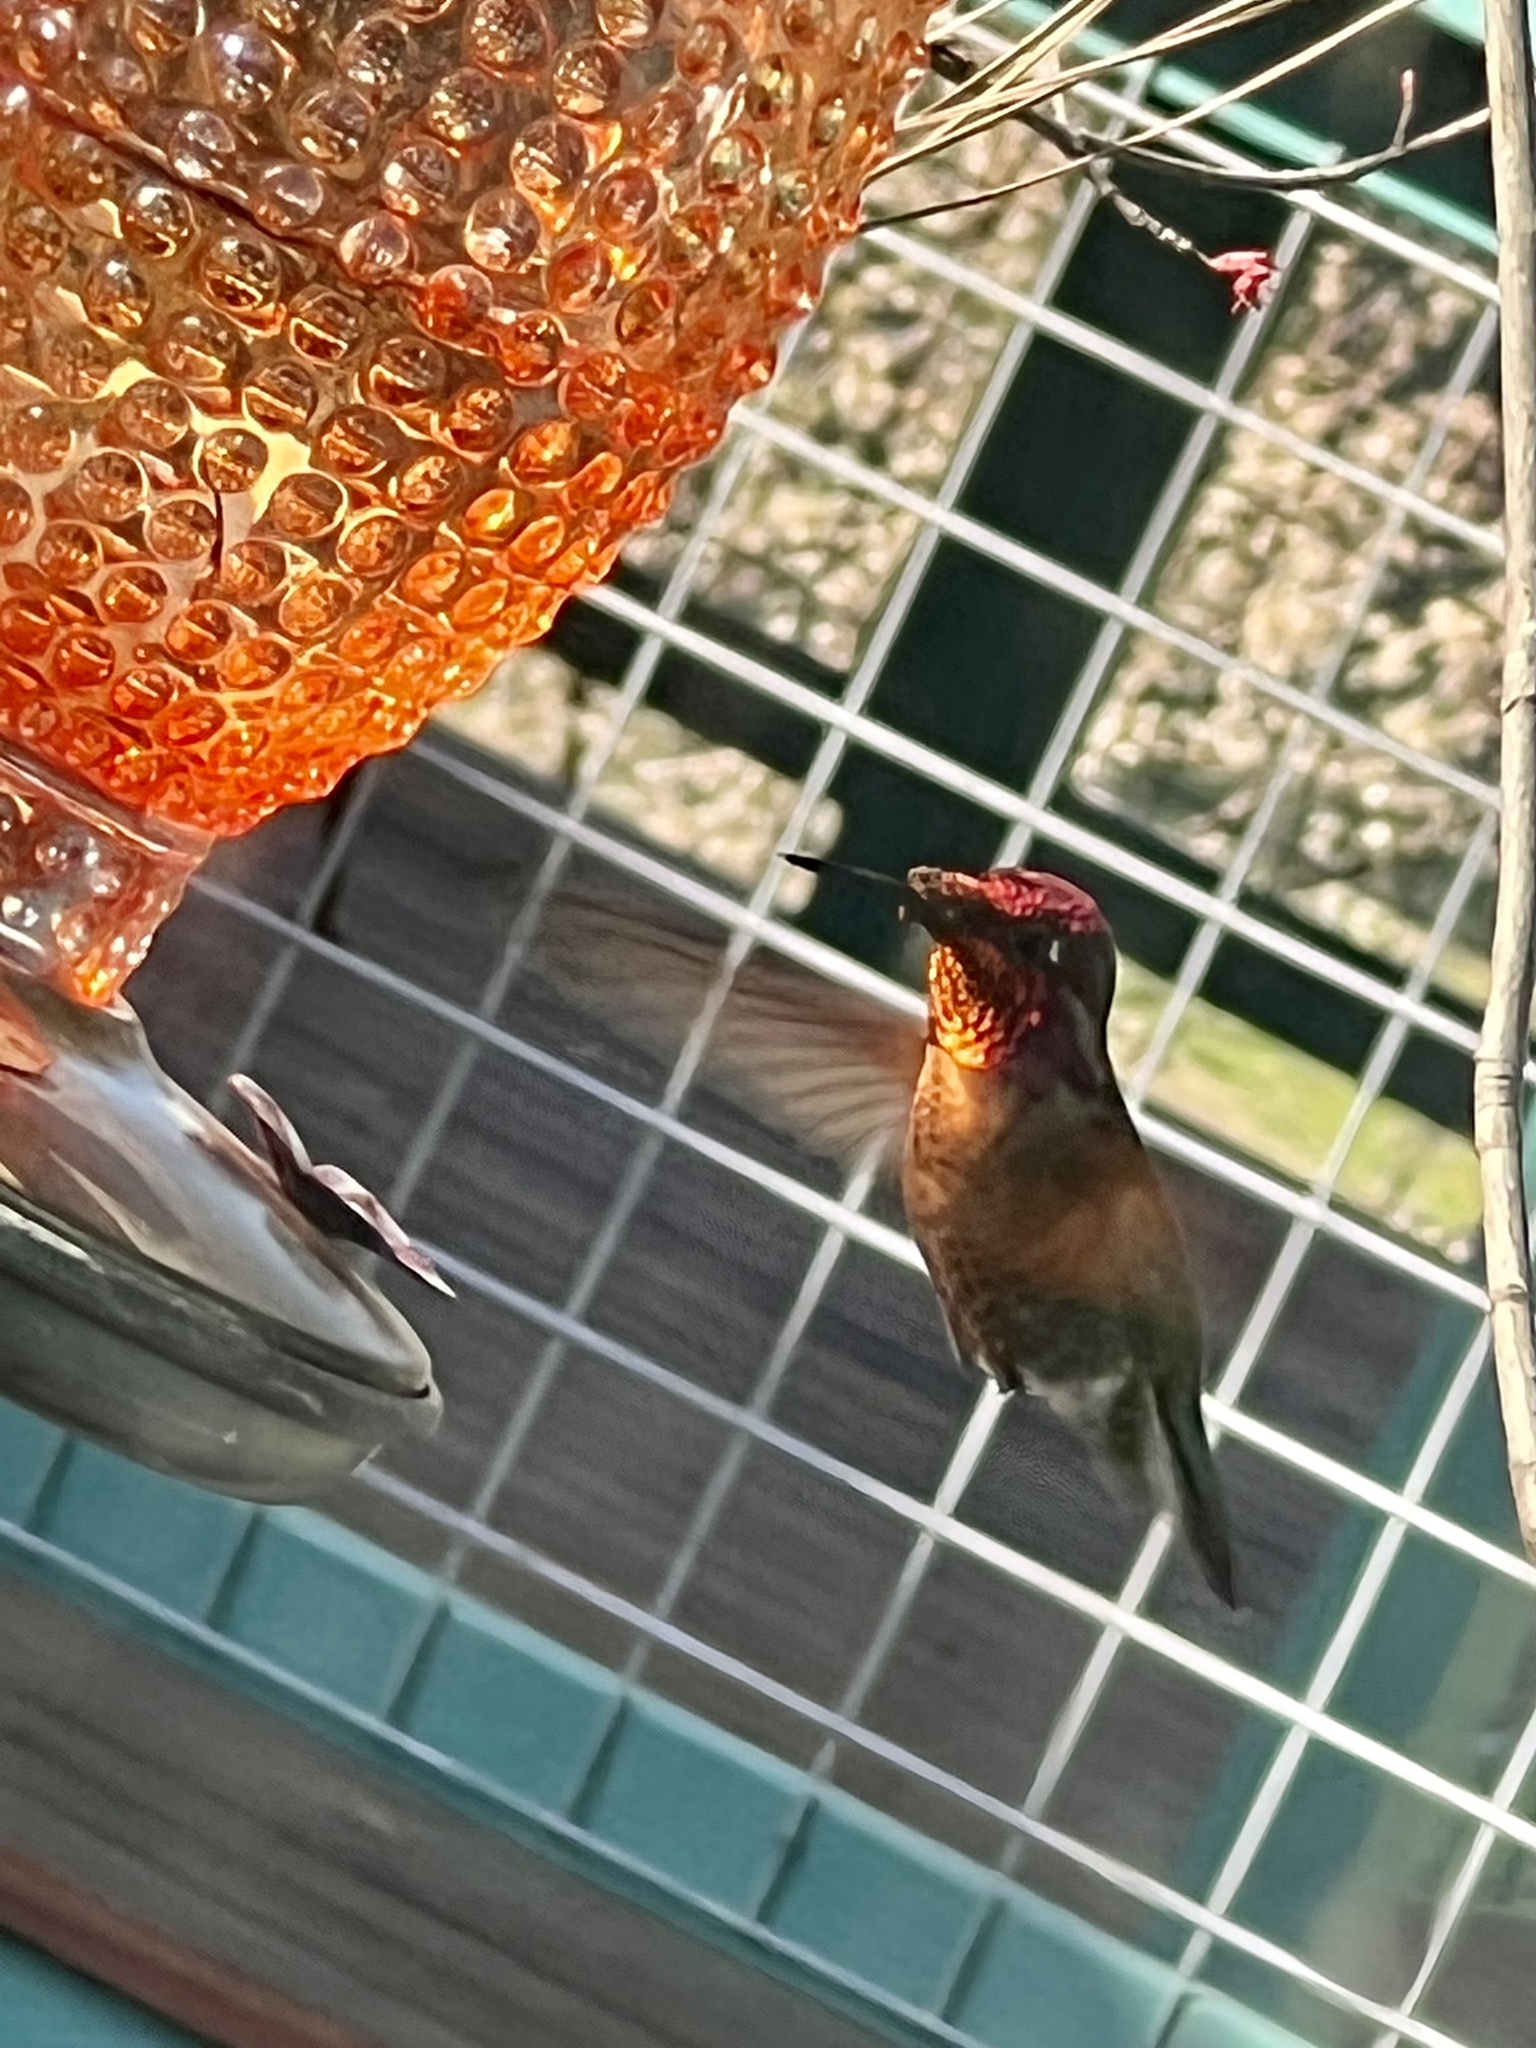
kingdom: Animalia
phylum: Chordata
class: Aves
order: Apodiformes
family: Trochilidae
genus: Calypte
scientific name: Calypte anna
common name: Anna's hummingbird
